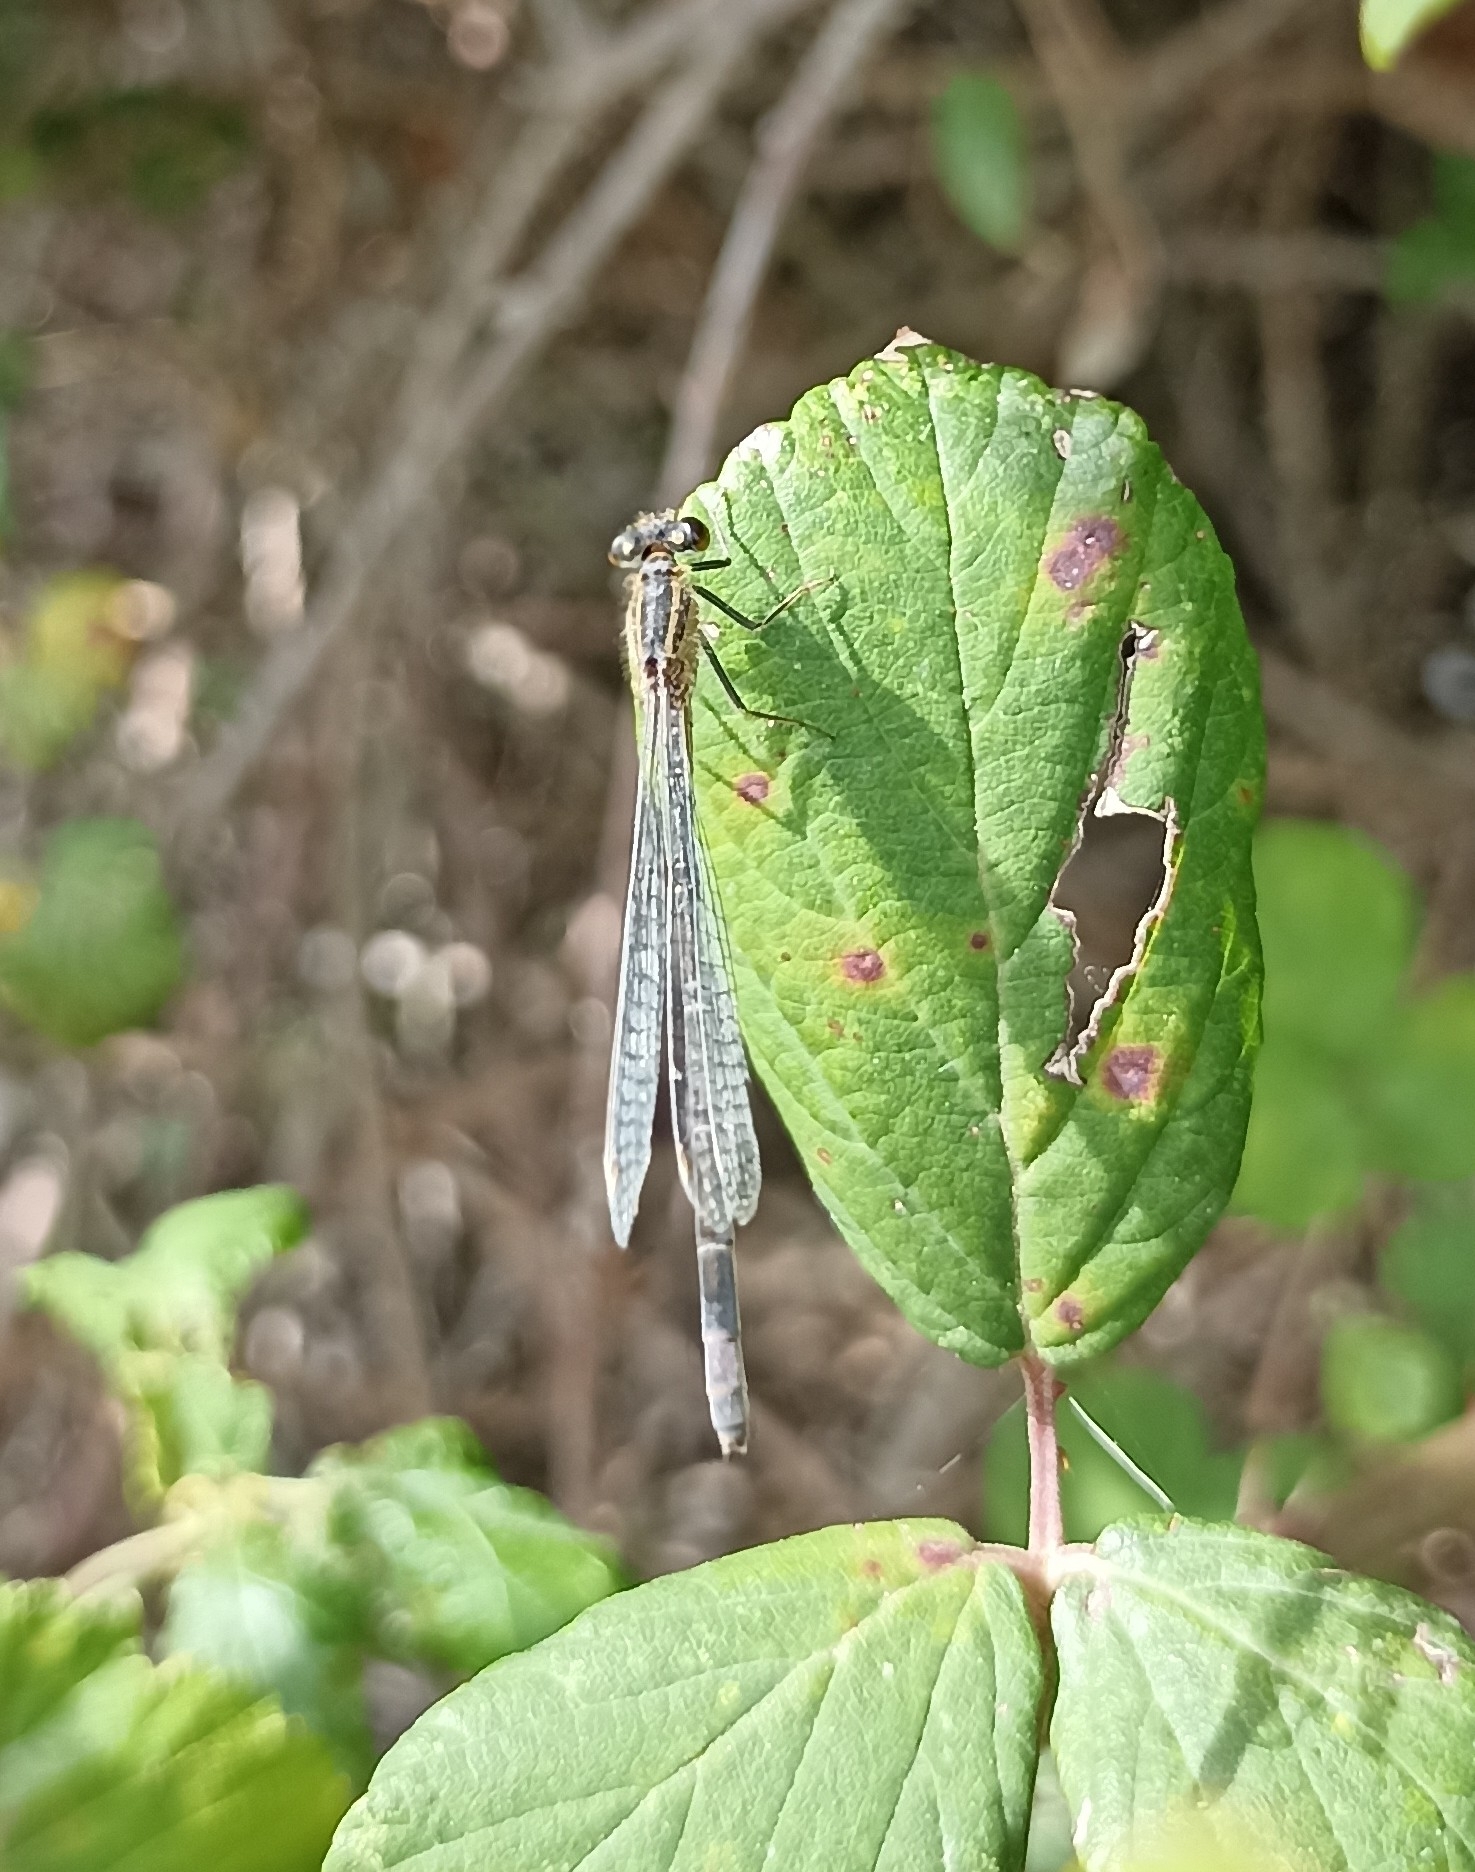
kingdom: Animalia
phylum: Arthropoda
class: Insecta
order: Odonata
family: Coenagrionidae
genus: Ischnura
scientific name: Ischnura elegans
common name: Blue-tailed damselfly
